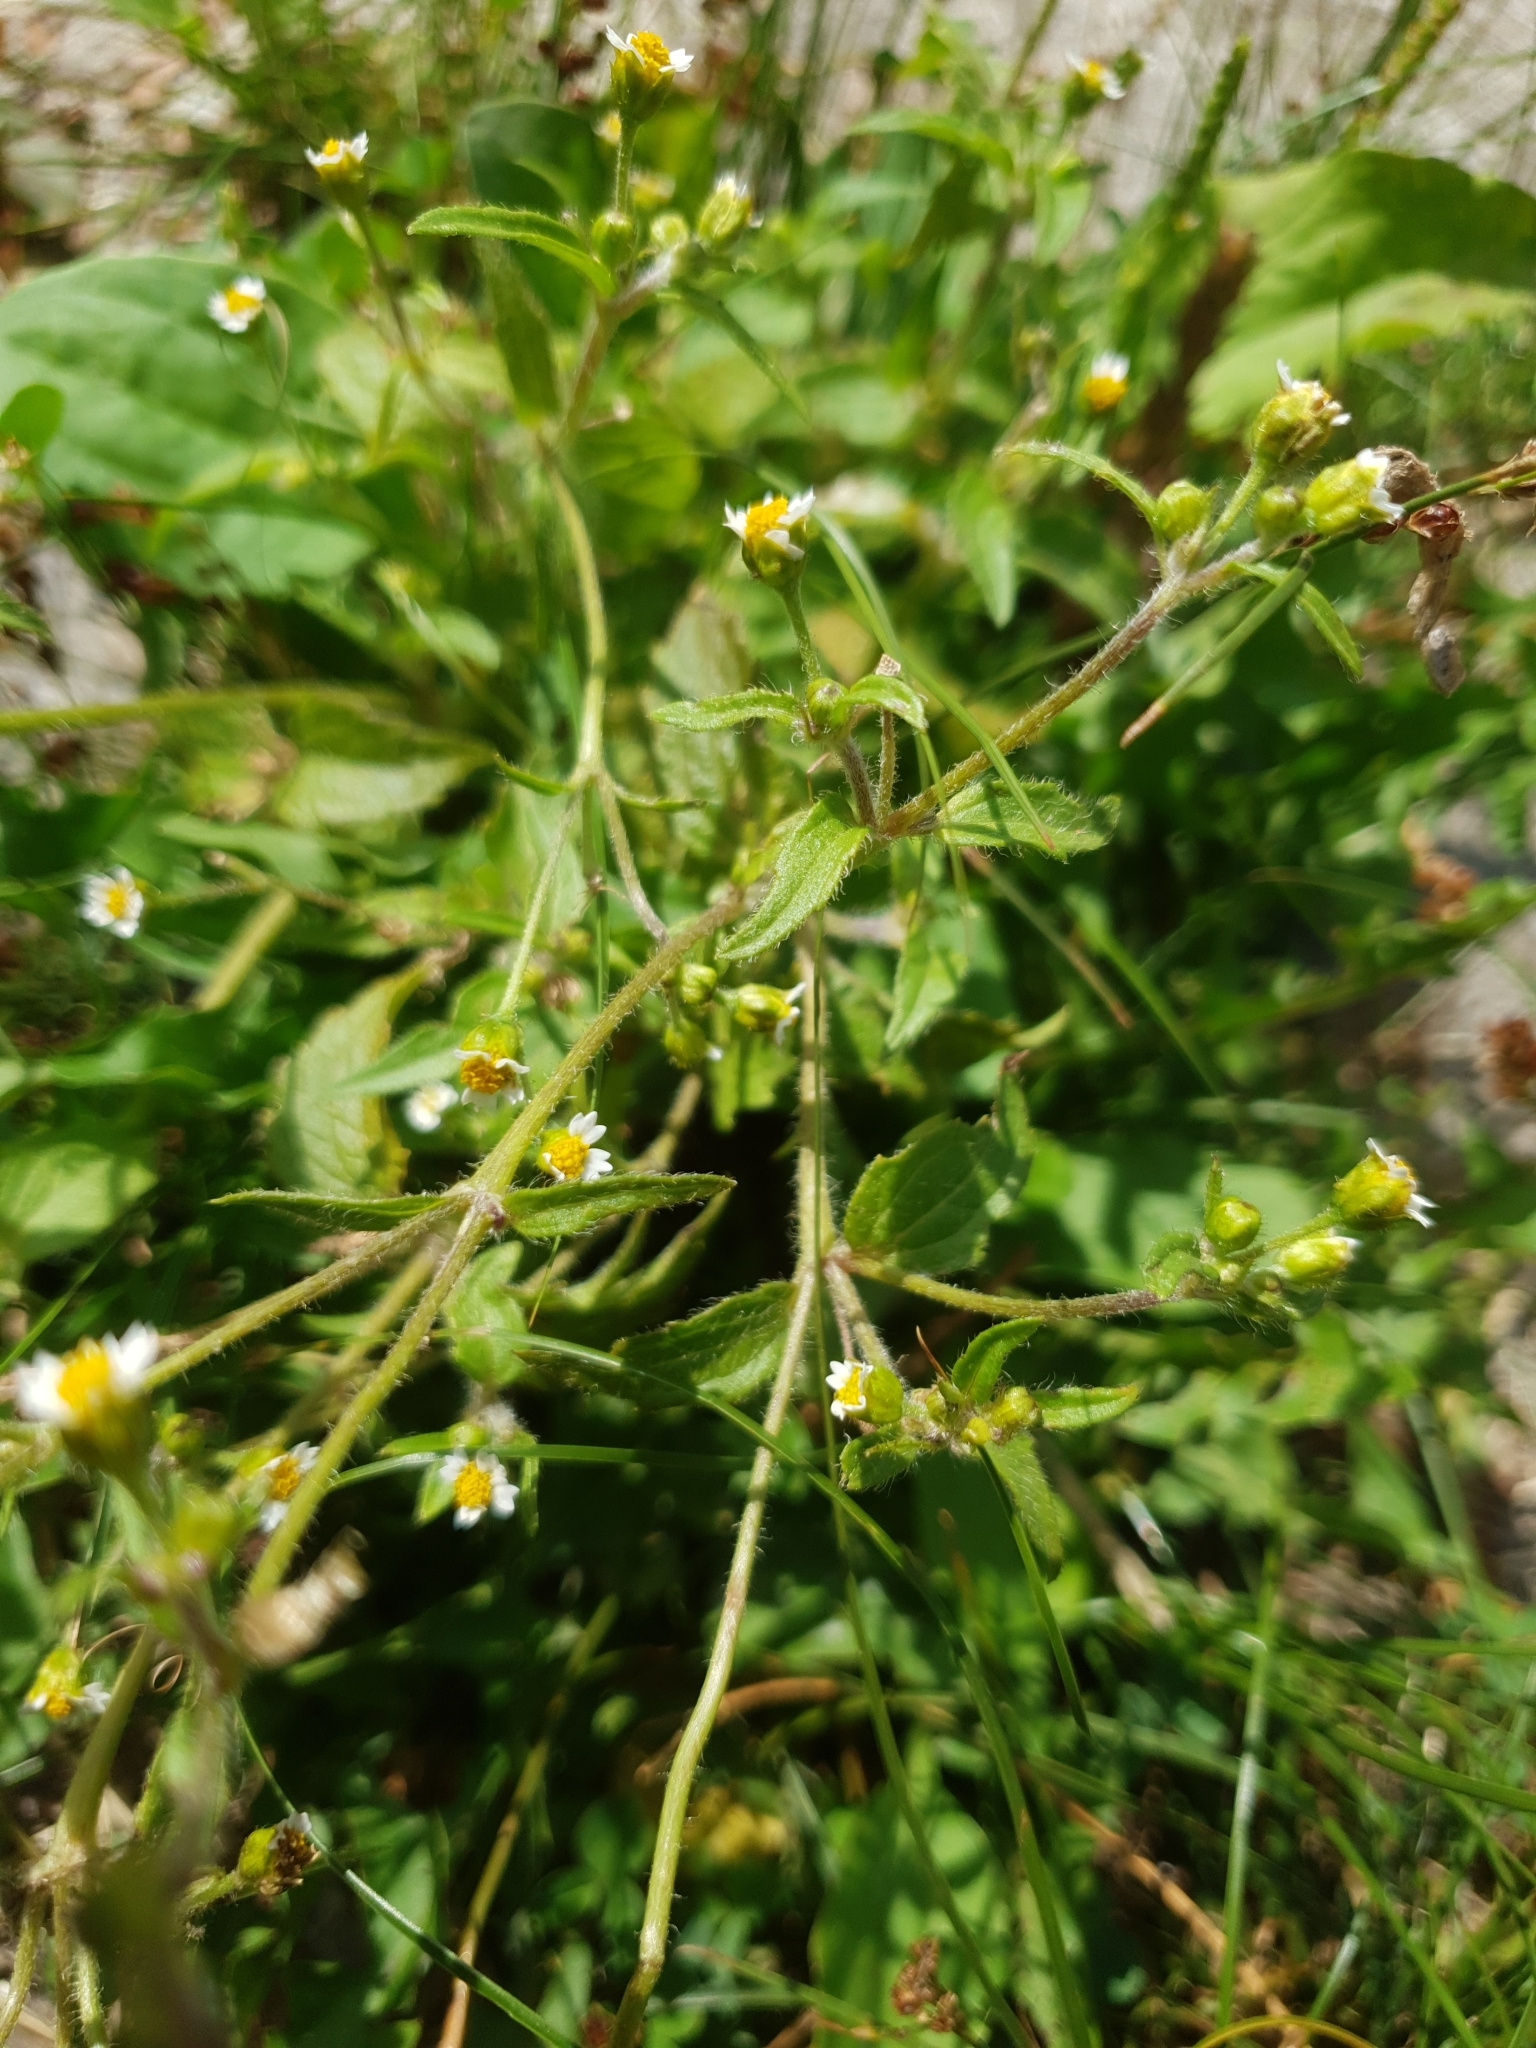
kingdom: Plantae
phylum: Tracheophyta
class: Magnoliopsida
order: Asterales
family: Asteraceae
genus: Galinsoga
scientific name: Galinsoga quadriradiata
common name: Shaggy soldier
